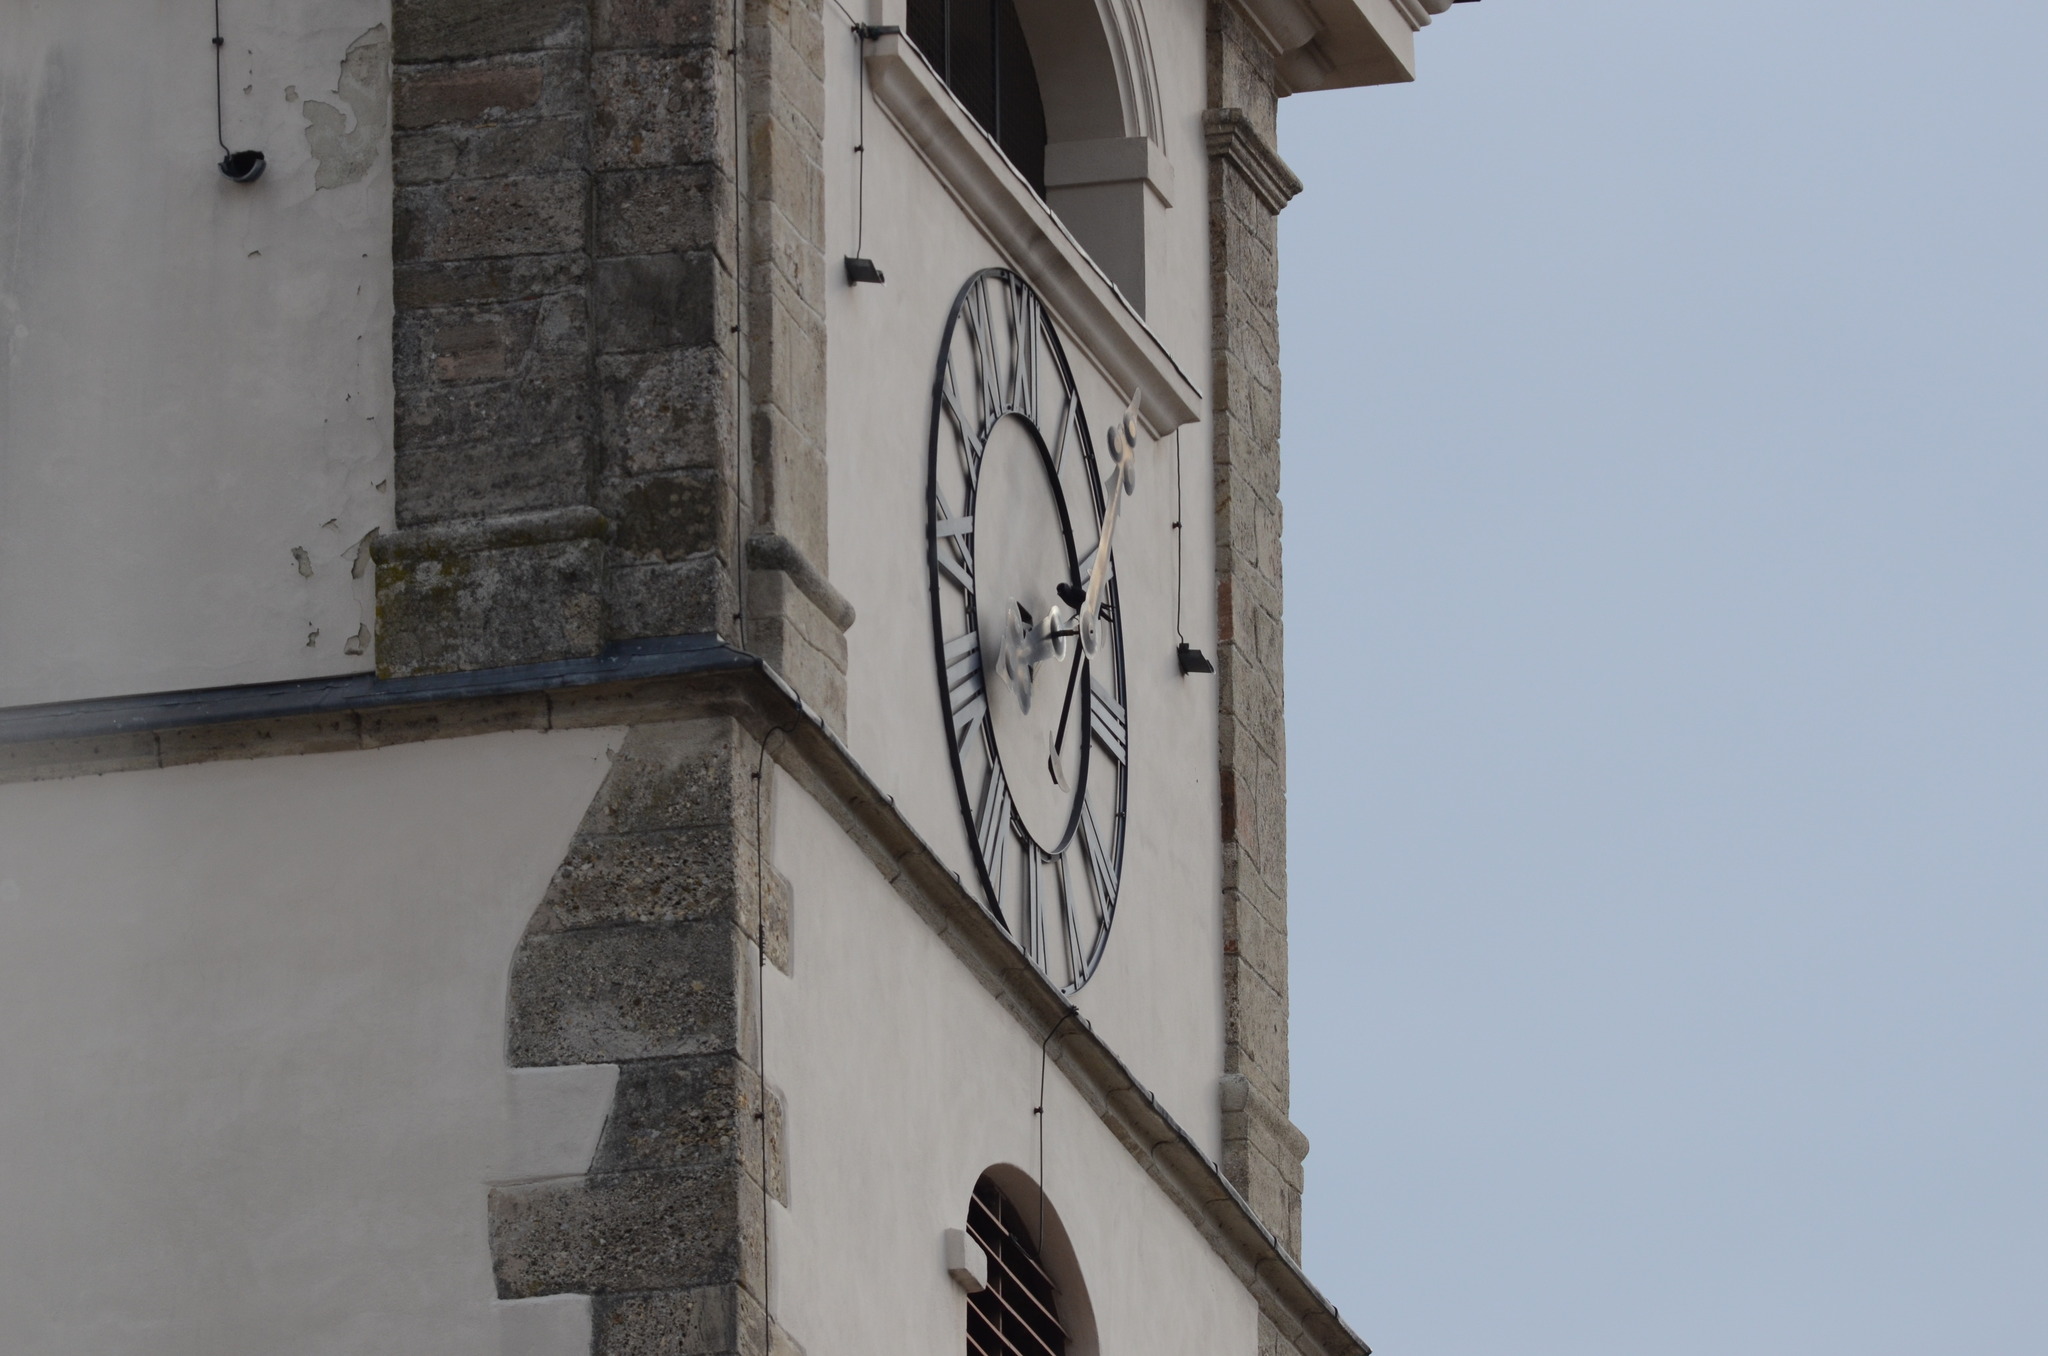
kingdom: Animalia
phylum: Chordata
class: Aves
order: Passeriformes
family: Corvidae
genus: Coloeus
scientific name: Coloeus monedula
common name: Western jackdaw
